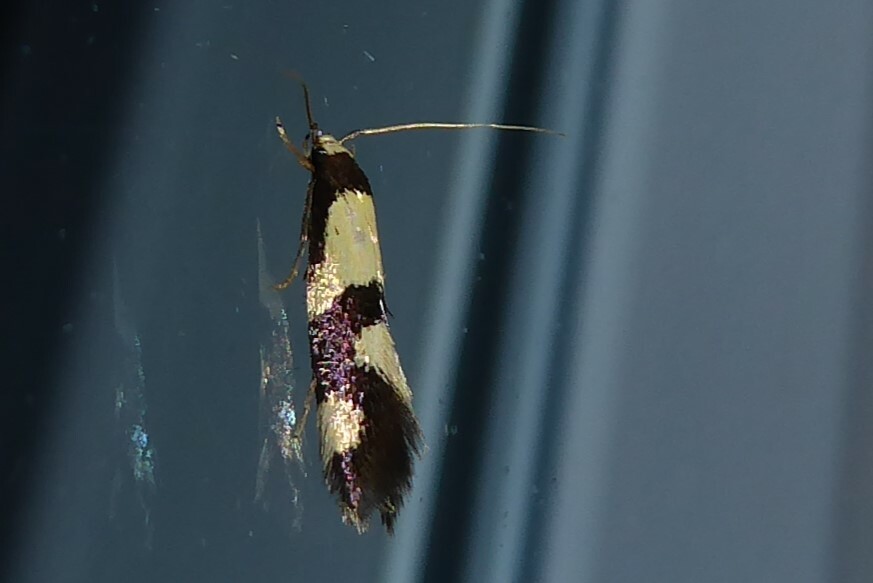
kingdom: Animalia
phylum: Arthropoda
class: Insecta
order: Lepidoptera
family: Tineidae
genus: Opogona
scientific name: Opogona comptella
